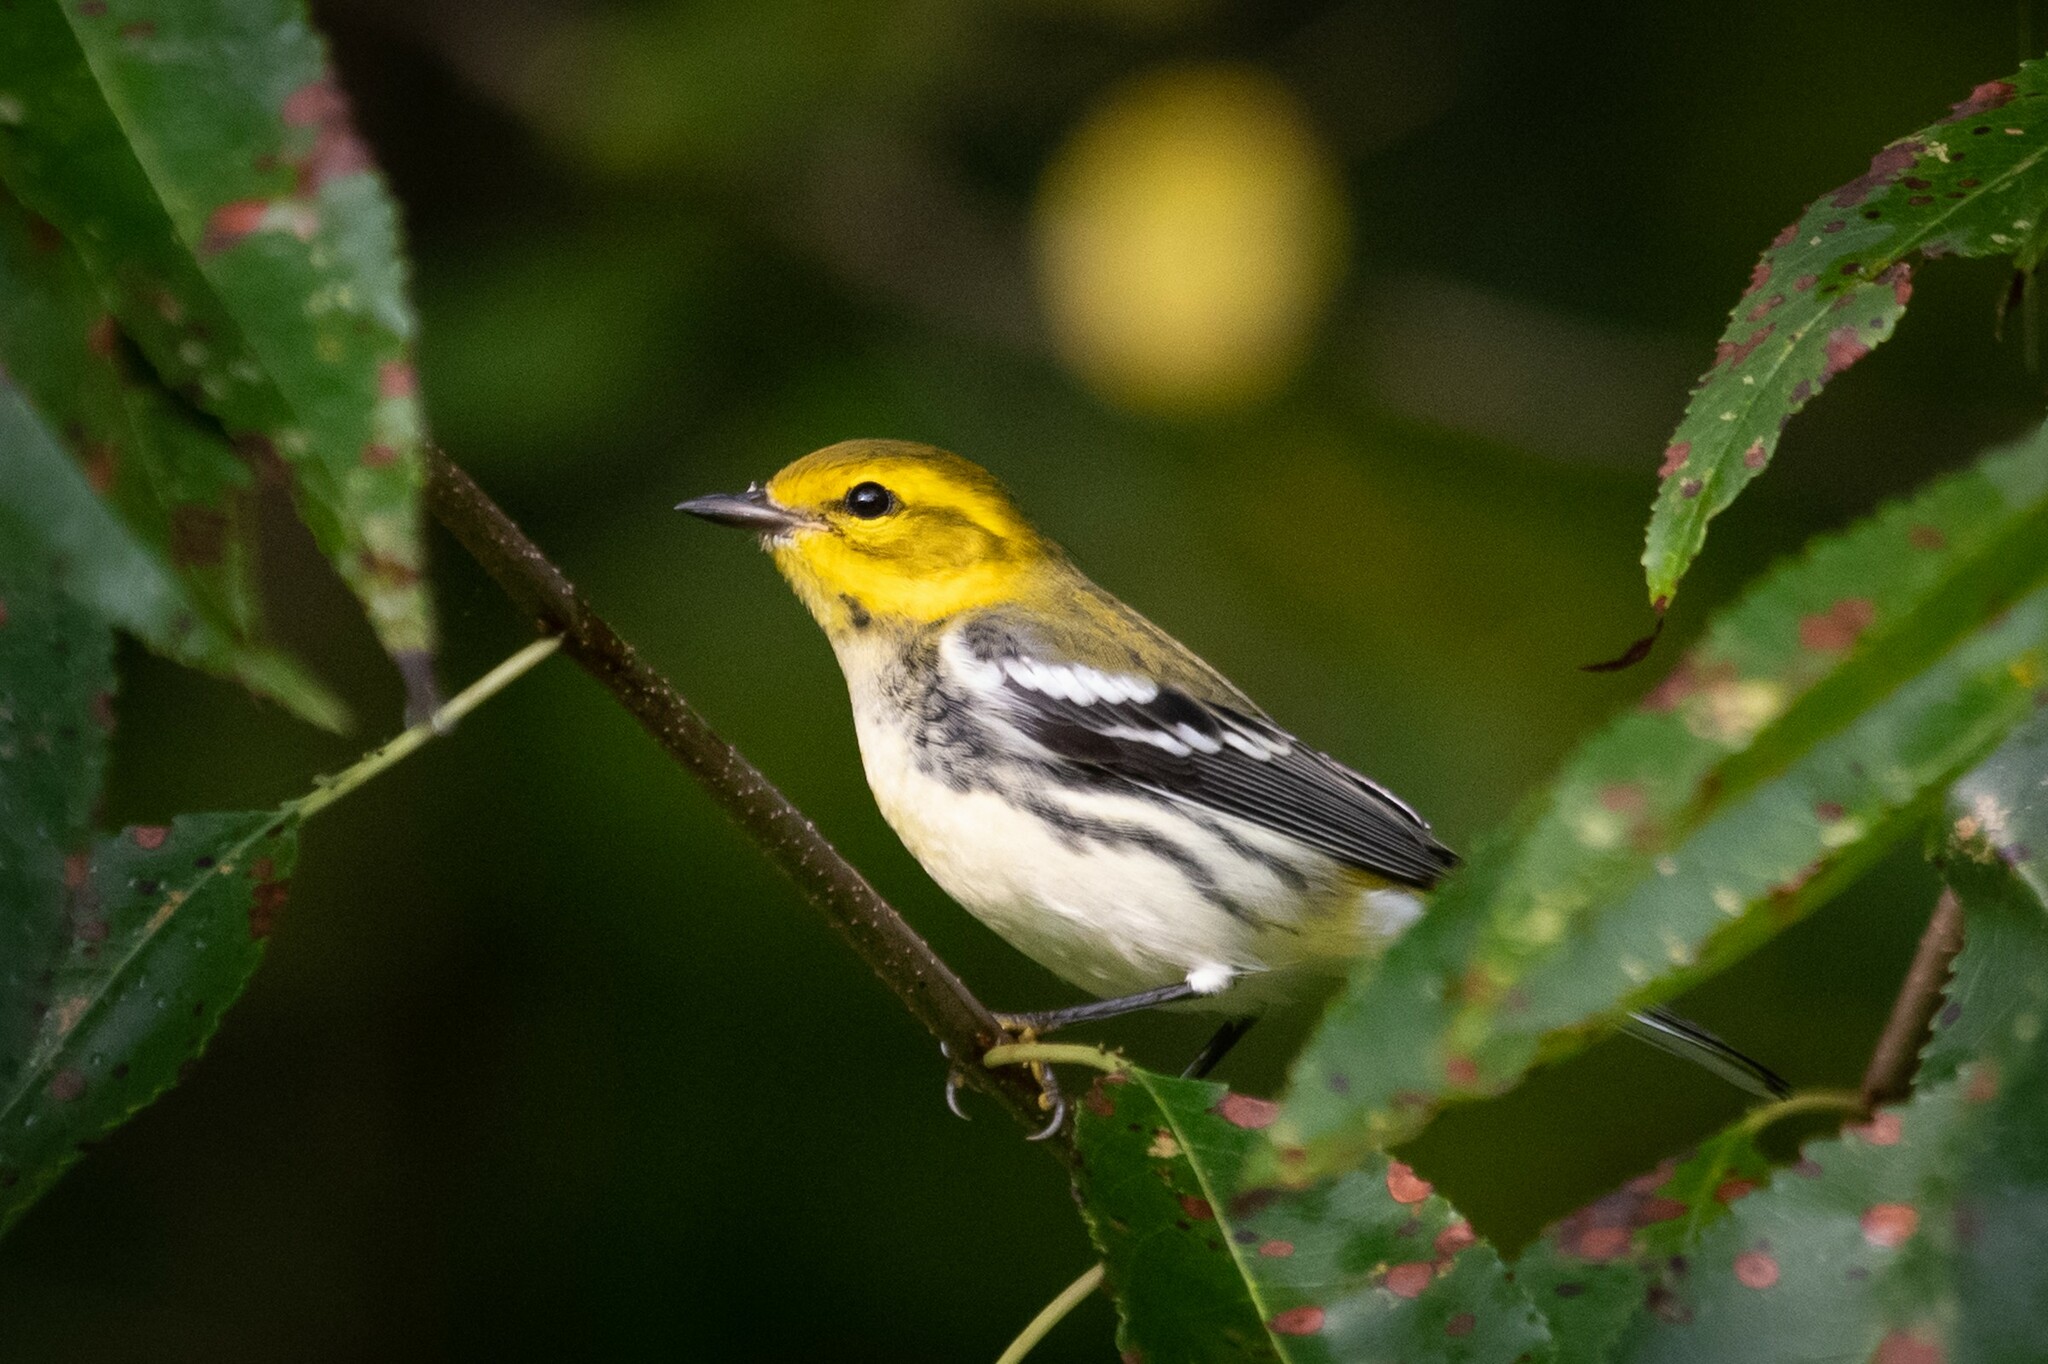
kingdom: Animalia
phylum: Chordata
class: Aves
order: Passeriformes
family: Parulidae
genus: Setophaga
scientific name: Setophaga virens
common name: Black-throated green warbler
